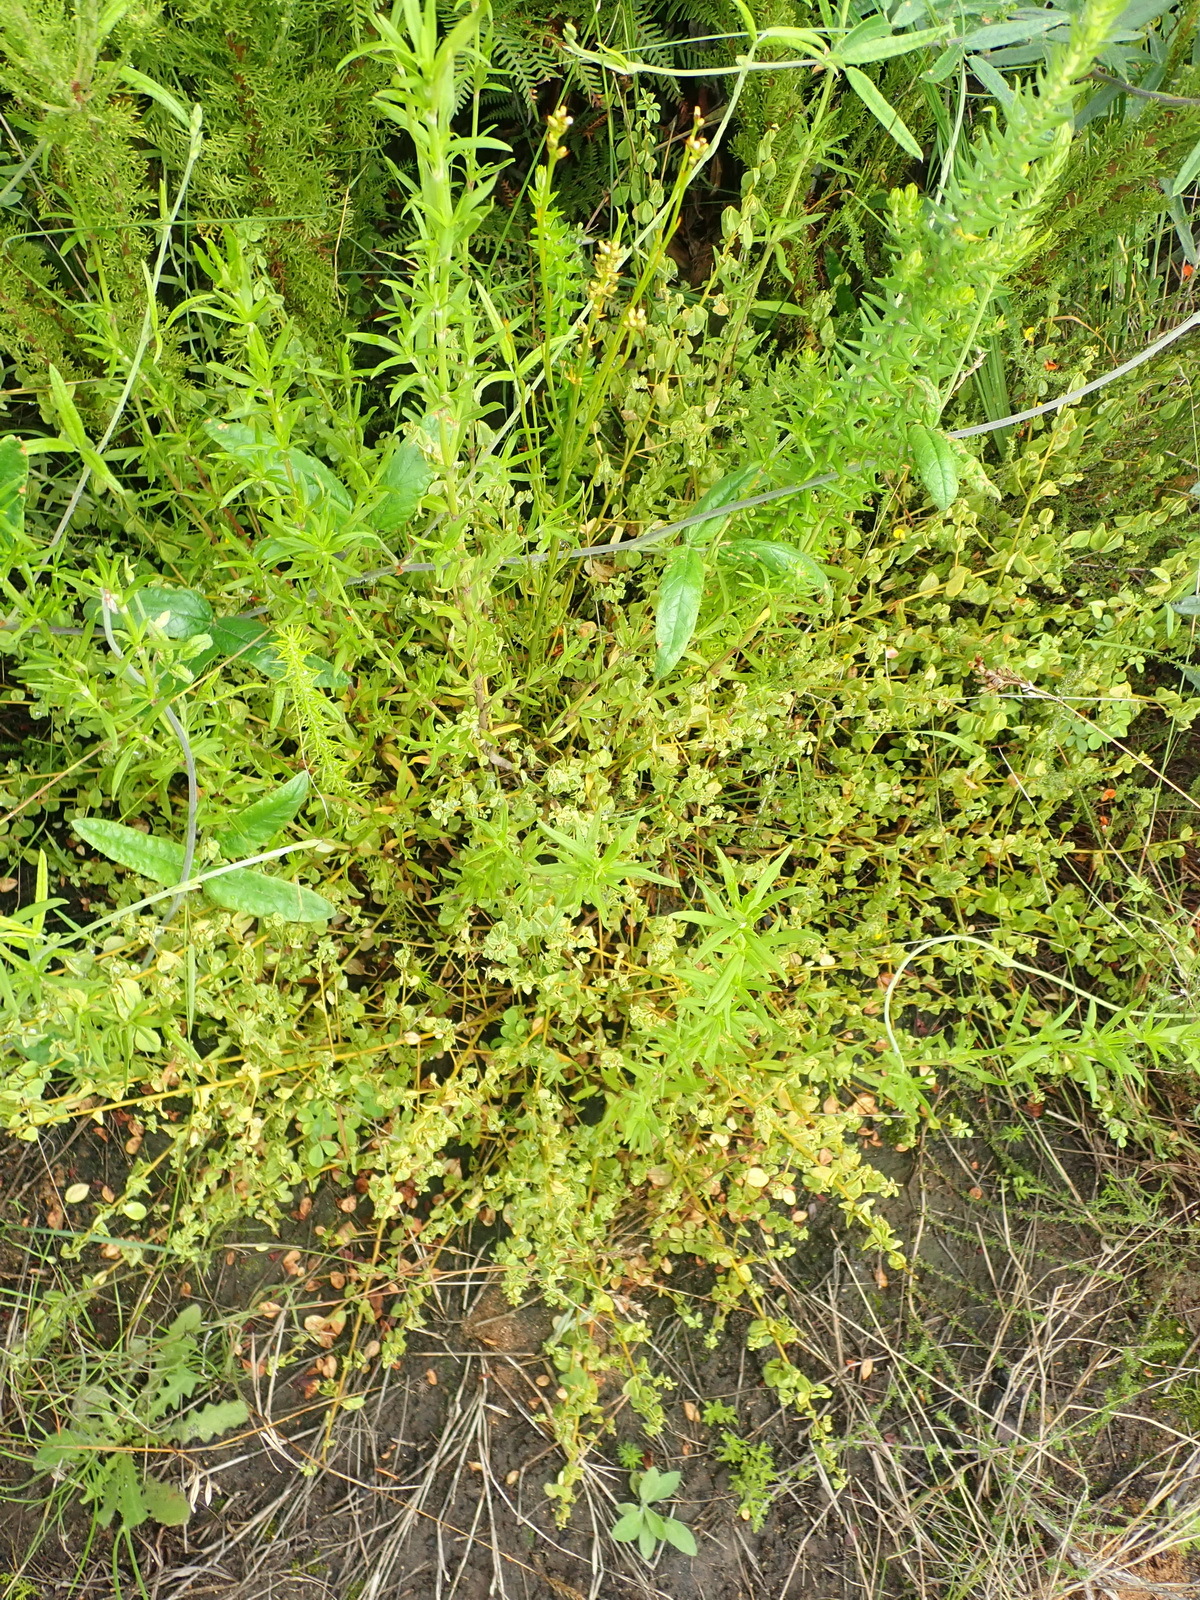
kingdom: Plantae
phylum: Tracheophyta
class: Magnoliopsida
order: Fabales
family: Fabaceae
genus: Hypocalyptus
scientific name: Hypocalyptus oxalidifolius
